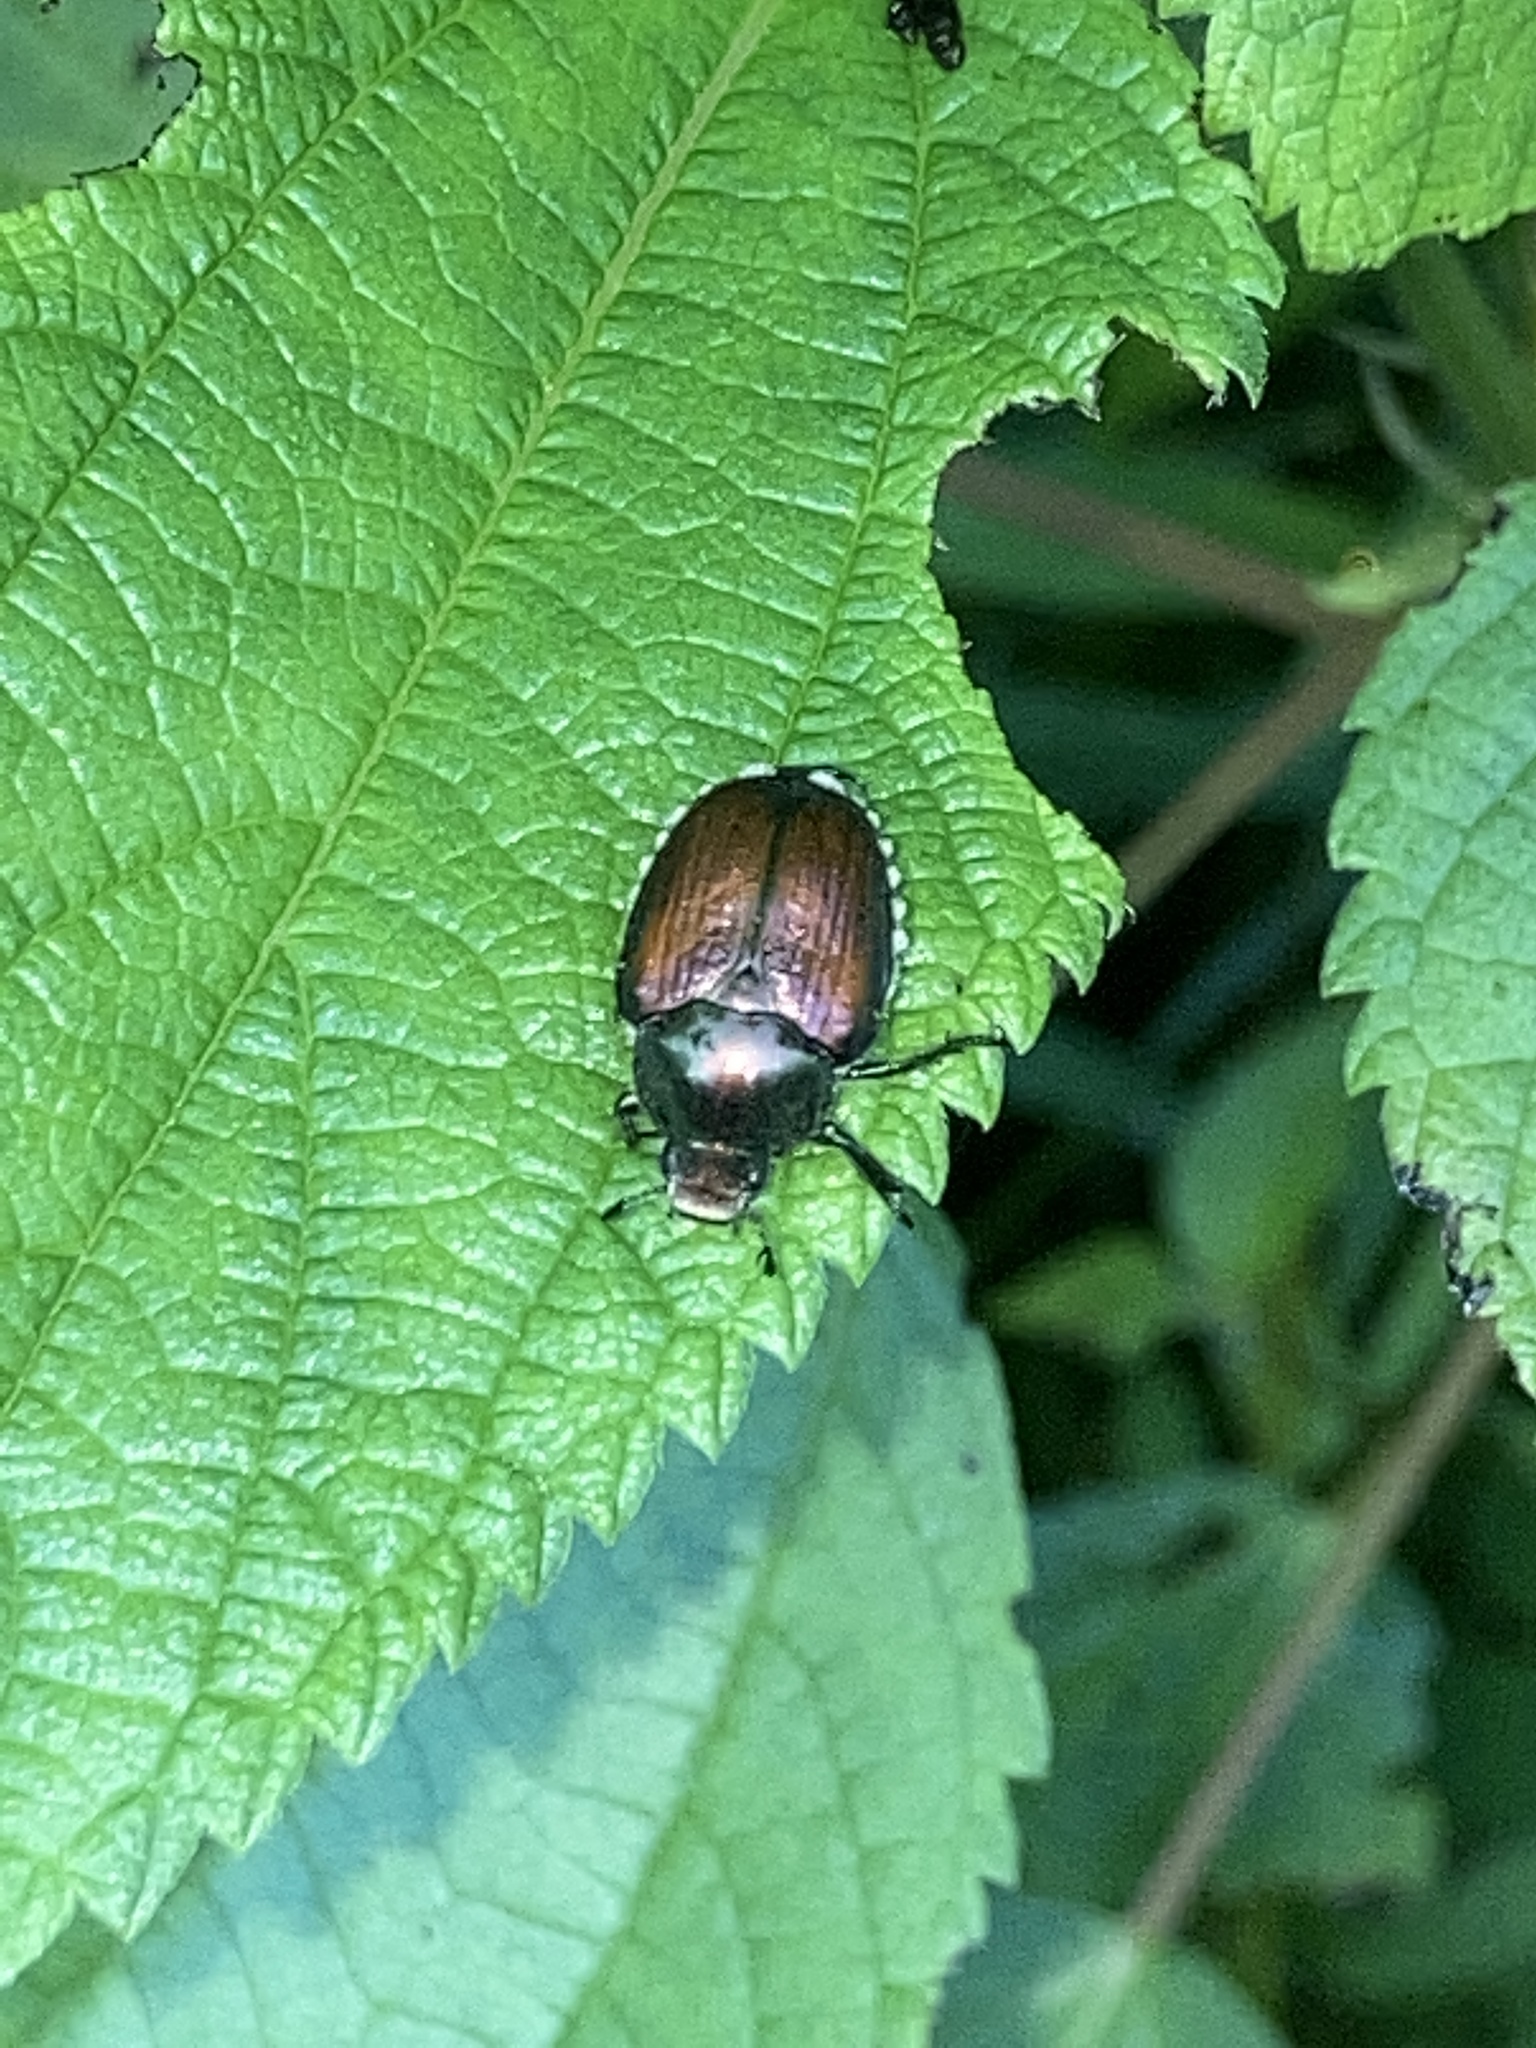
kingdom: Animalia
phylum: Arthropoda
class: Insecta
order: Coleoptera
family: Scarabaeidae
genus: Popillia
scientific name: Popillia japonica
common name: Japanese beetle
